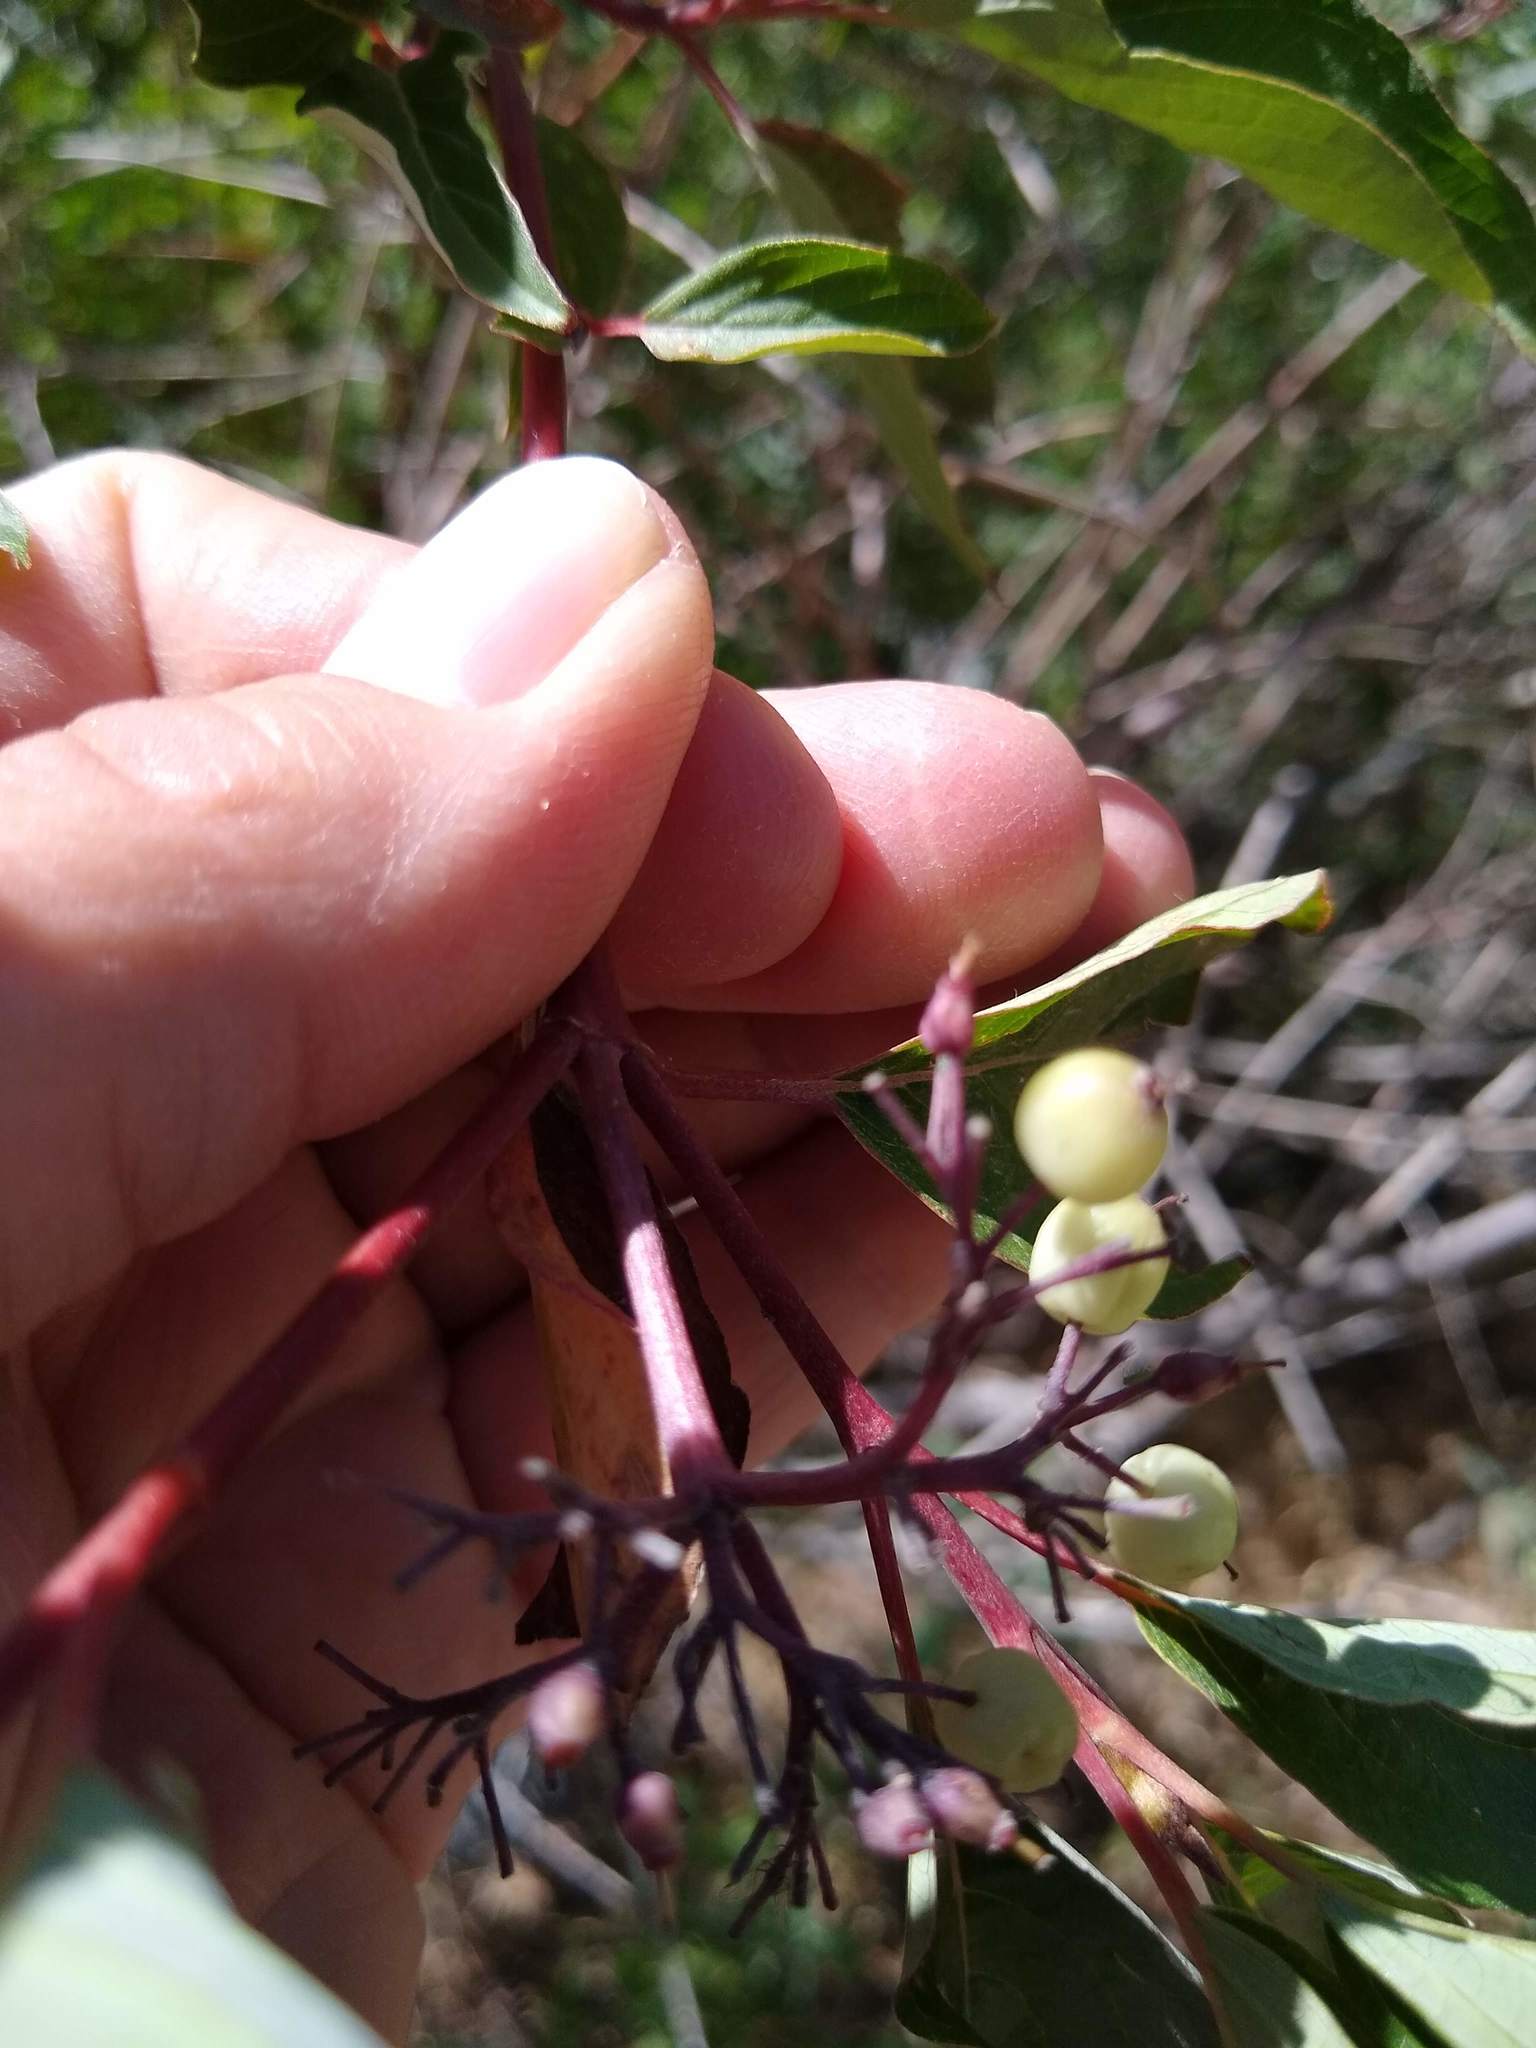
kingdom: Plantae
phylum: Tracheophyta
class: Magnoliopsida
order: Cornales
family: Cornaceae
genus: Cornus
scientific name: Cornus sericea
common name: Red-osier dogwood
